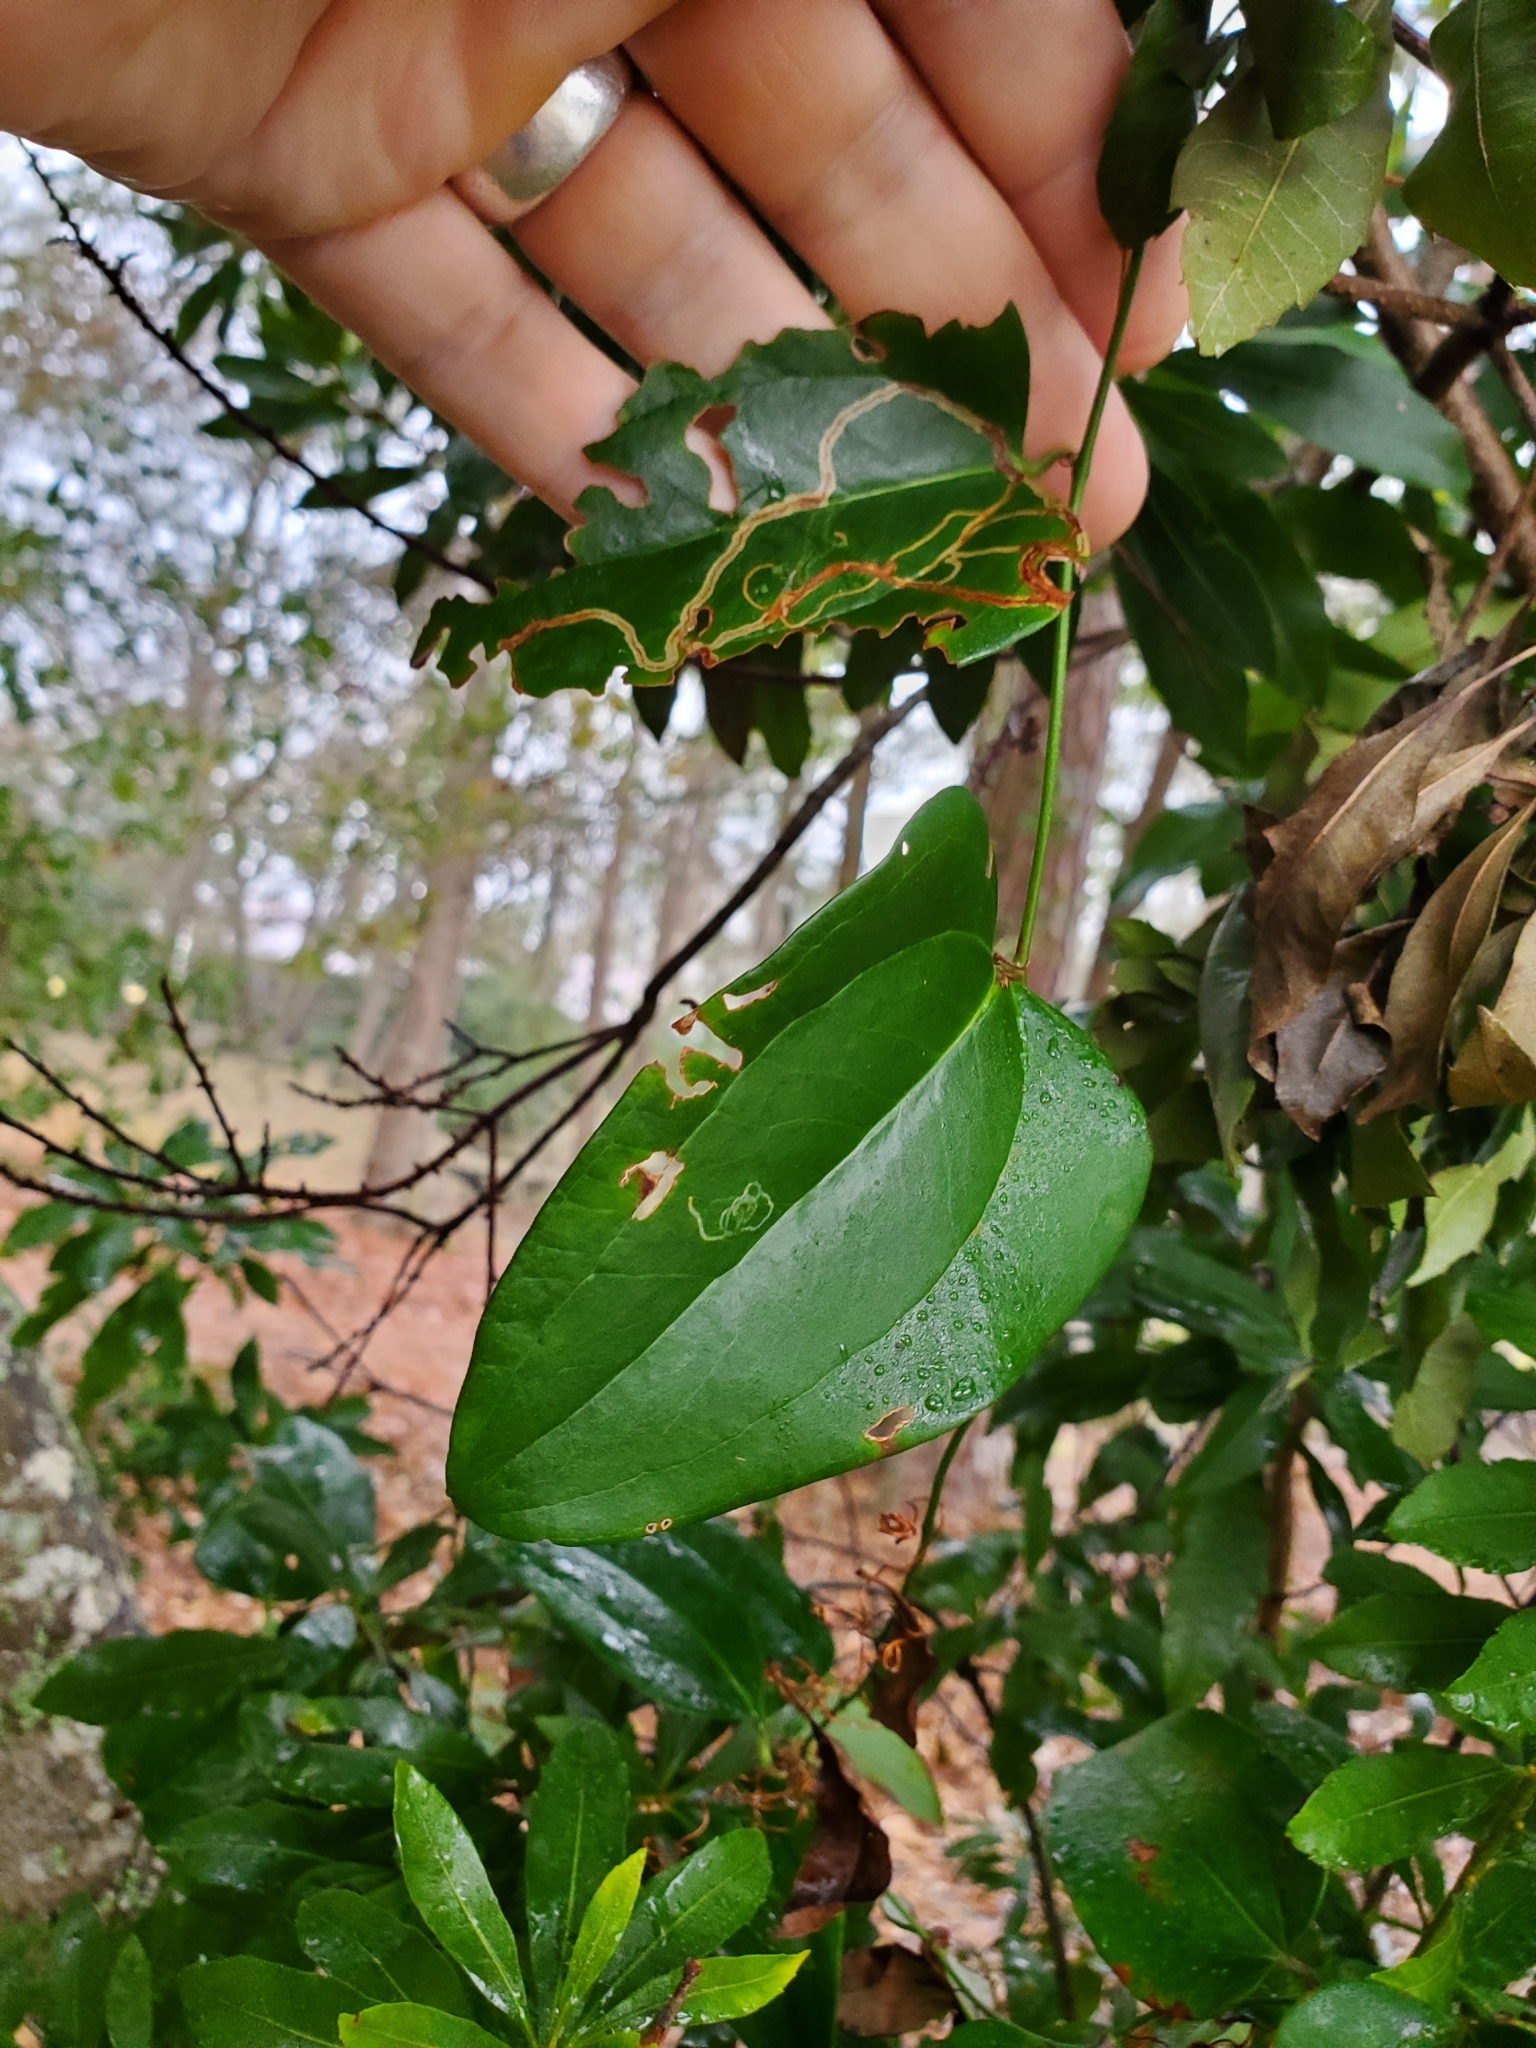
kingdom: Plantae
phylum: Tracheophyta
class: Liliopsida
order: Liliales
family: Smilacaceae
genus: Smilax
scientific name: Smilax glauca
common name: Cat greenbrier
